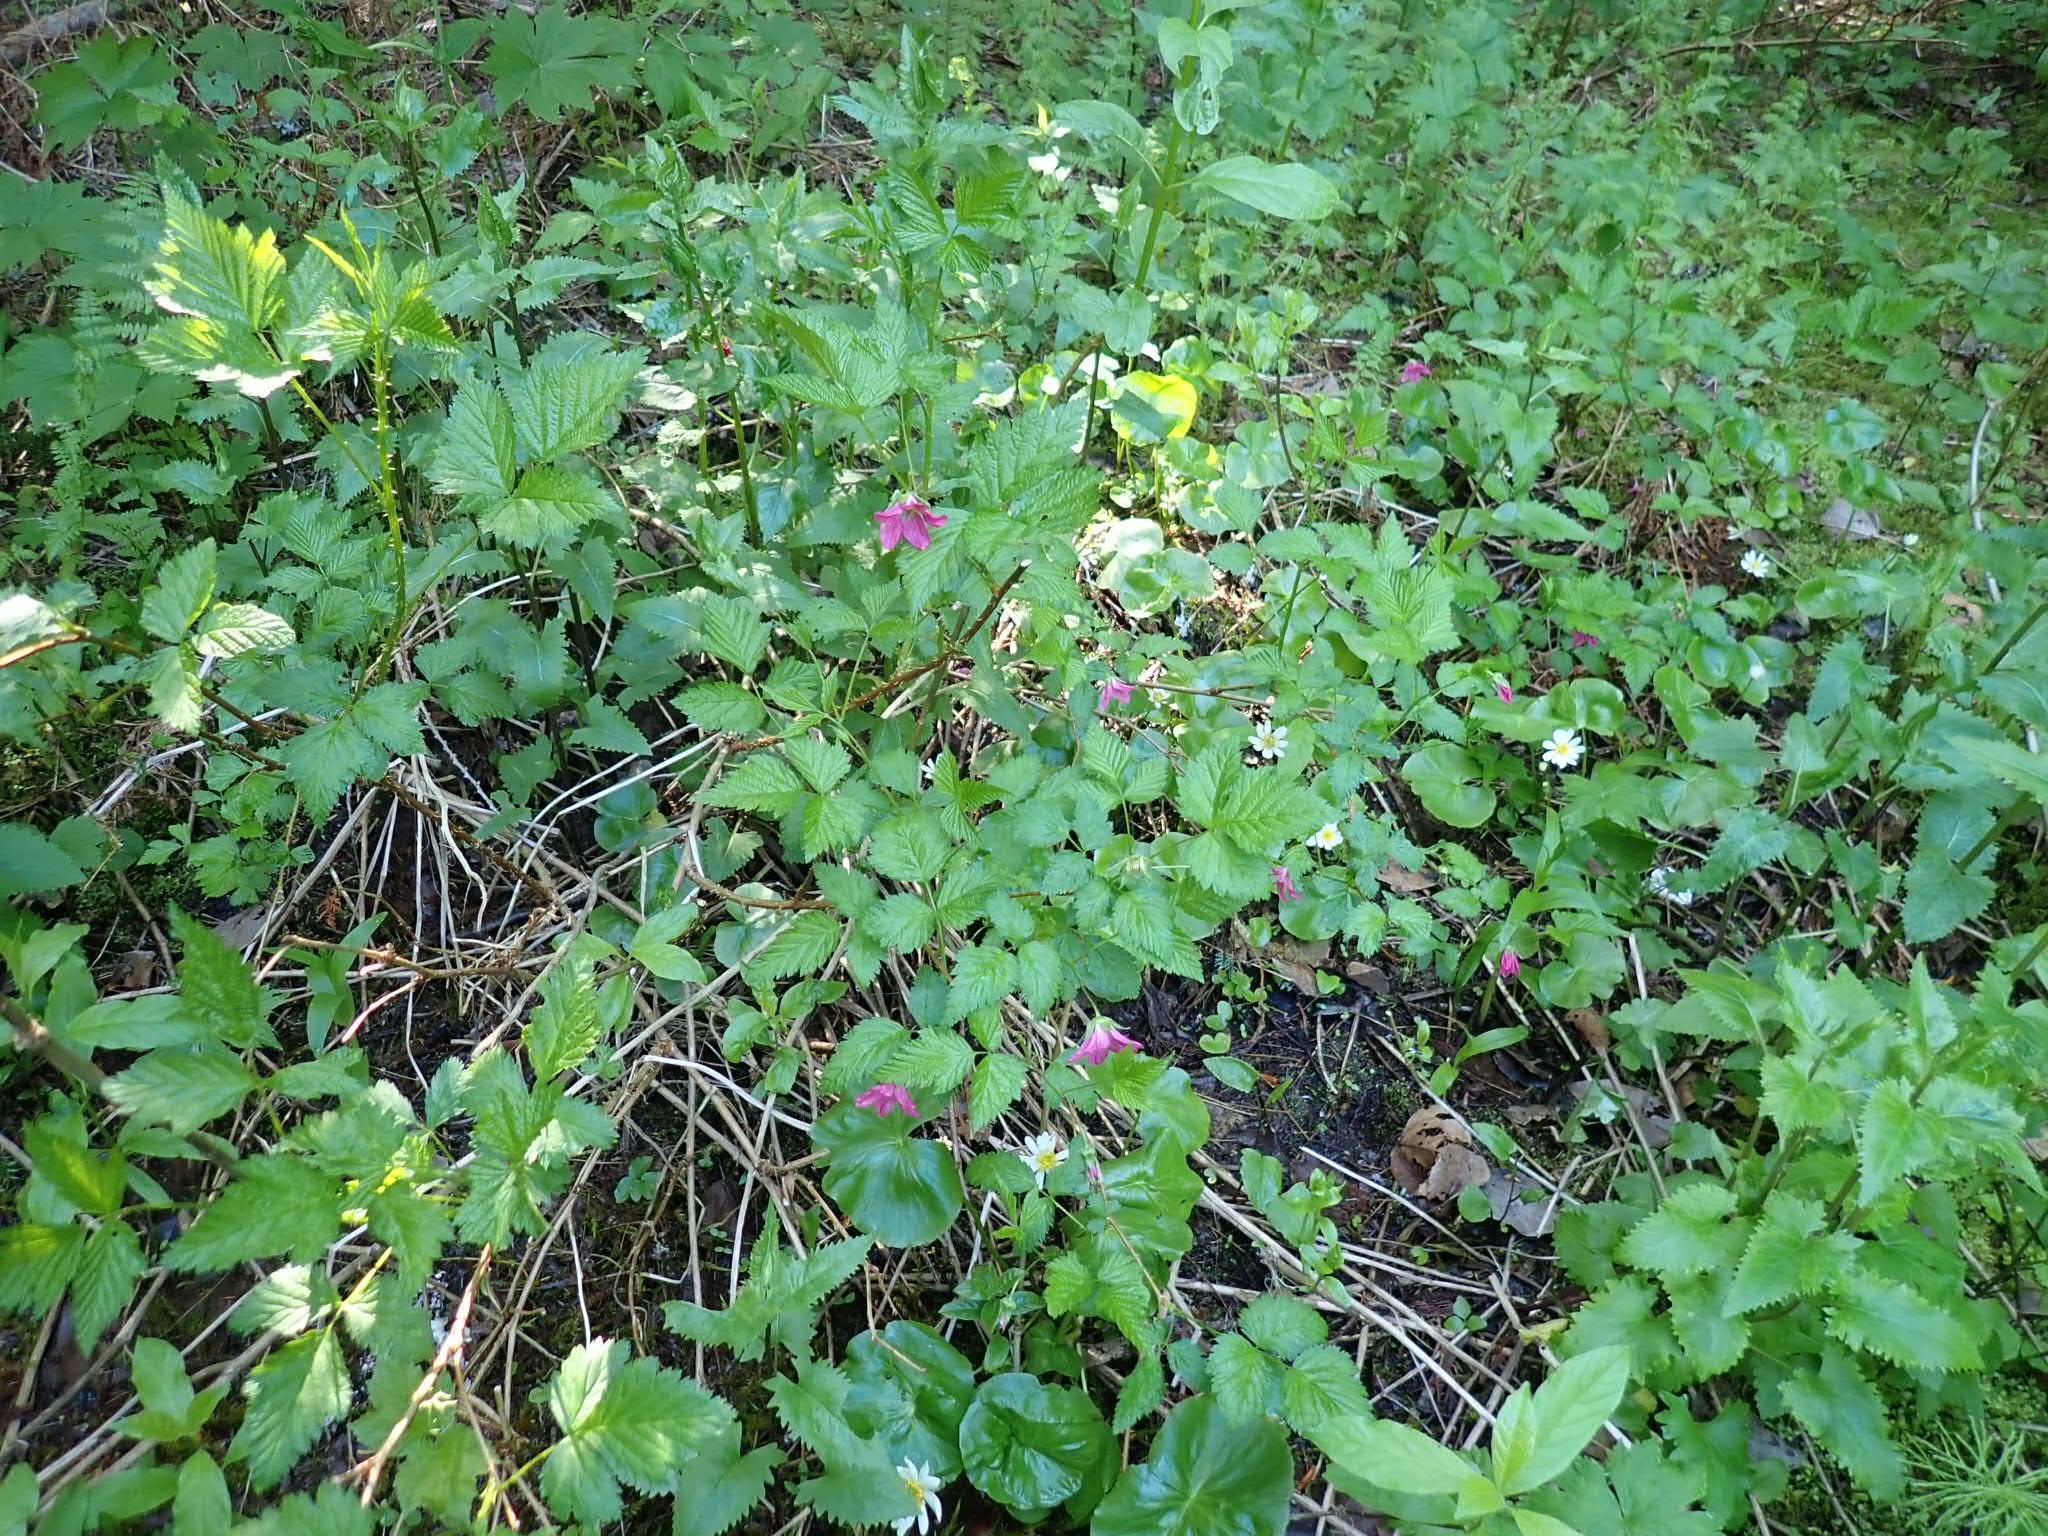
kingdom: Plantae
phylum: Tracheophyta
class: Magnoliopsida
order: Rosales
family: Rosaceae
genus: Rubus
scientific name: Rubus spectabilis
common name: Salmonberry
